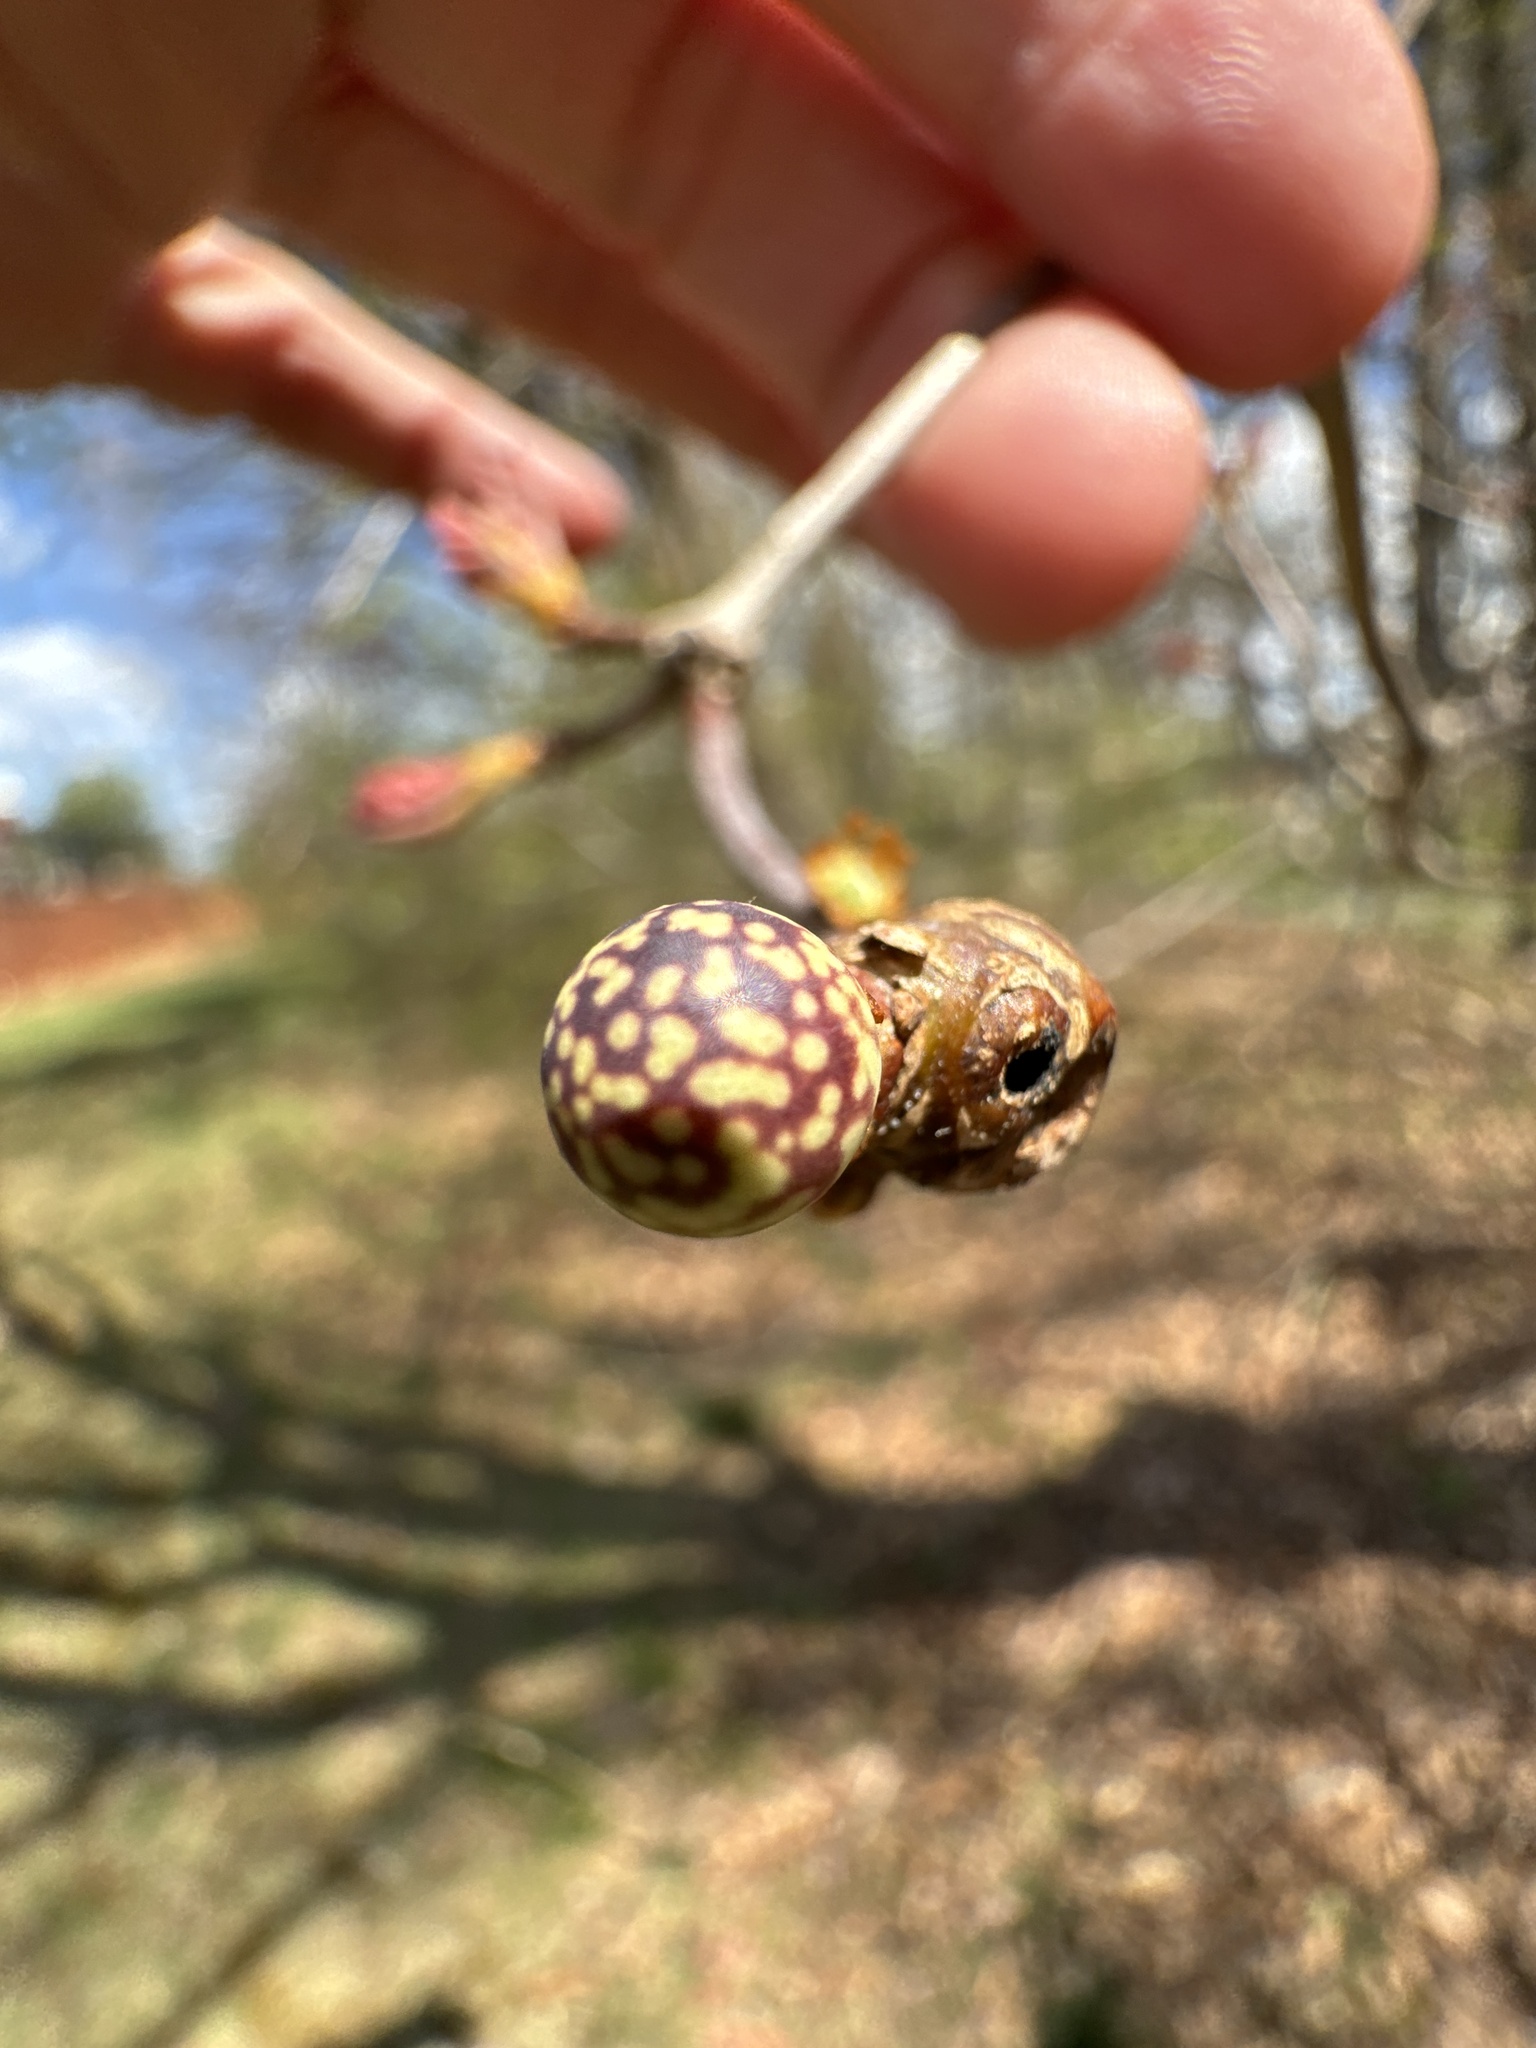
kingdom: Animalia
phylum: Arthropoda
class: Insecta
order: Hymenoptera
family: Cynipidae
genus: Andricus
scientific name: Andricus
